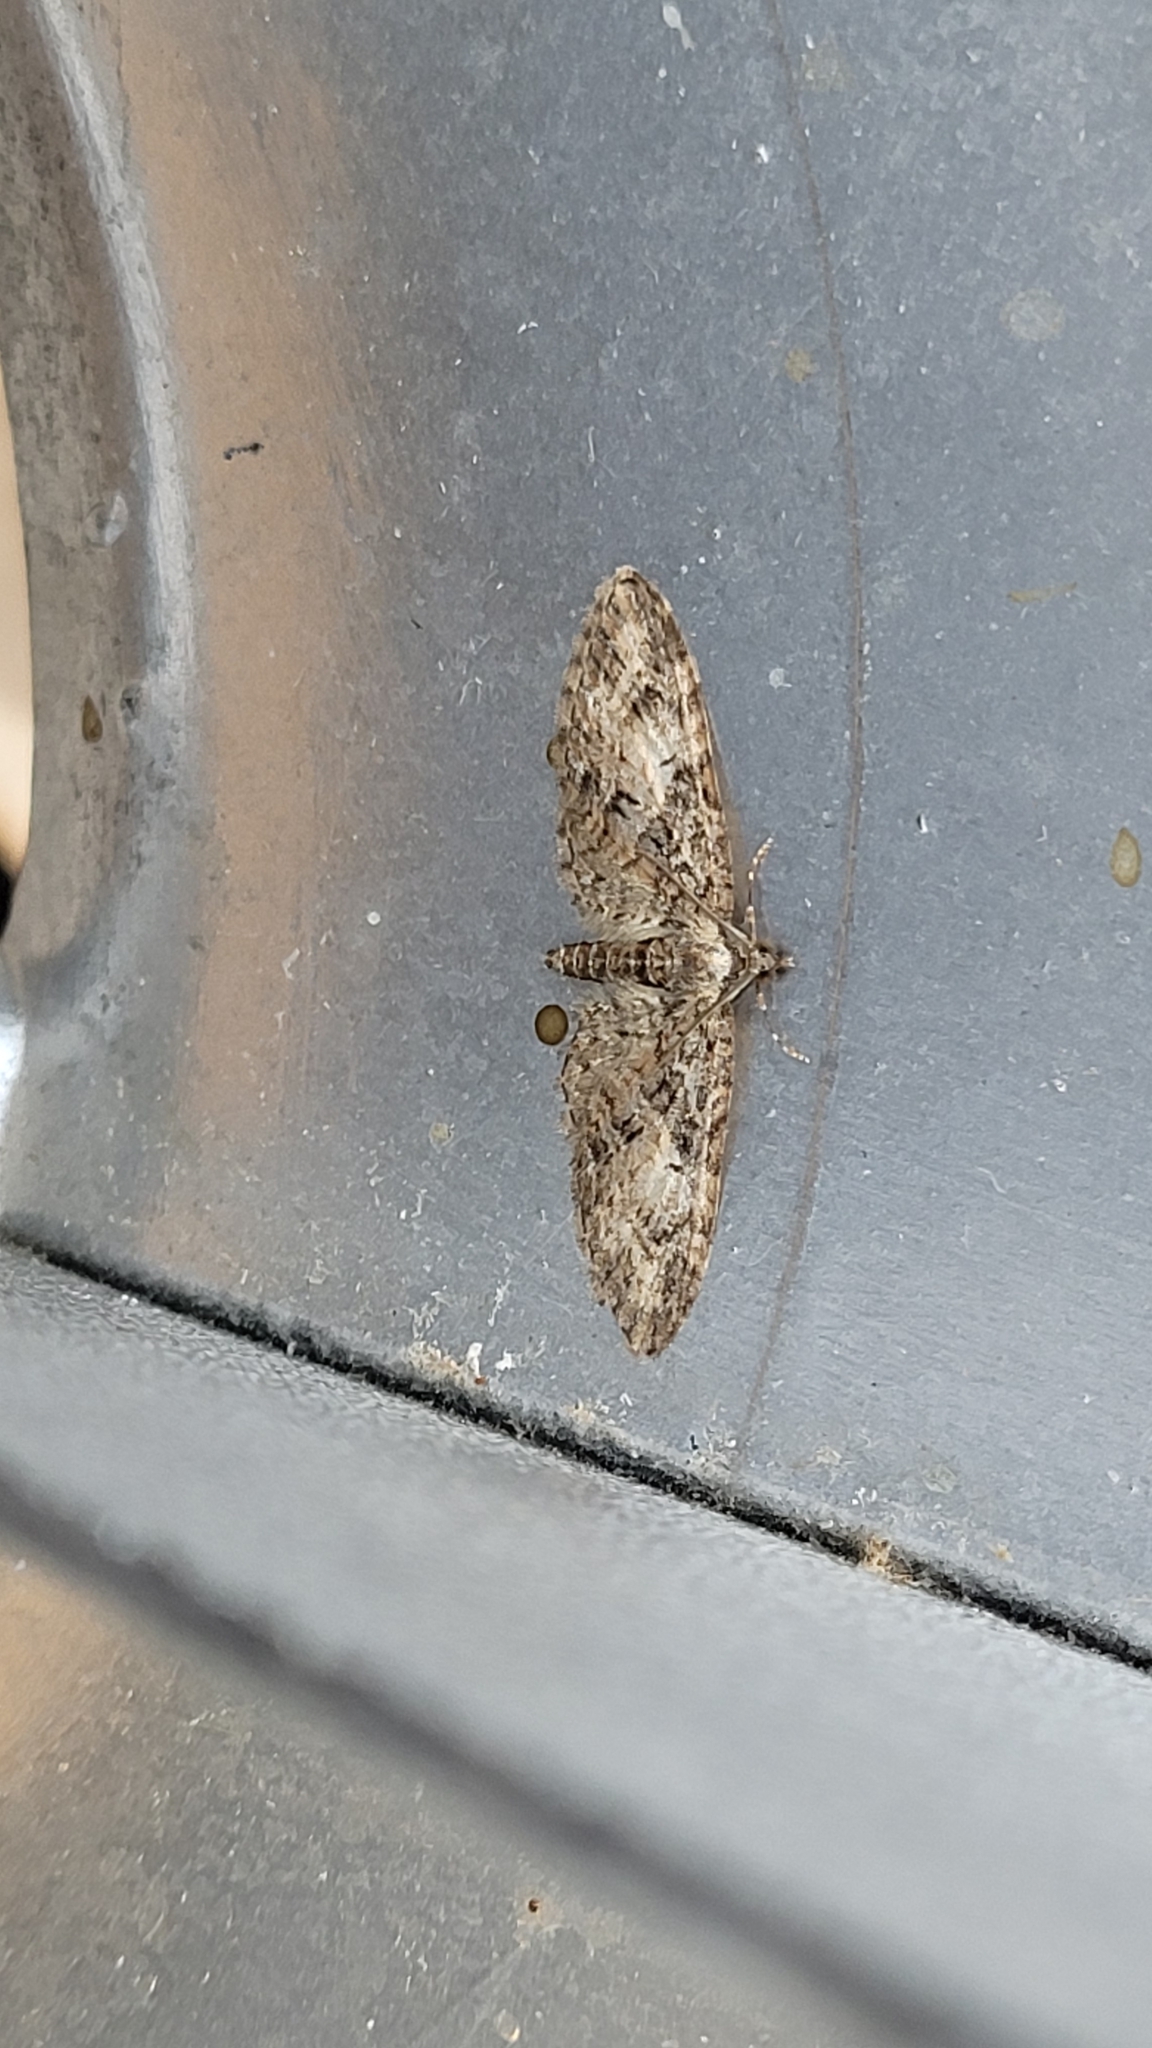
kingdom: Animalia
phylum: Arthropoda
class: Insecta
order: Lepidoptera
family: Geometridae
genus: Eupithecia
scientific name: Eupithecia abbreviata
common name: Brindled pug
